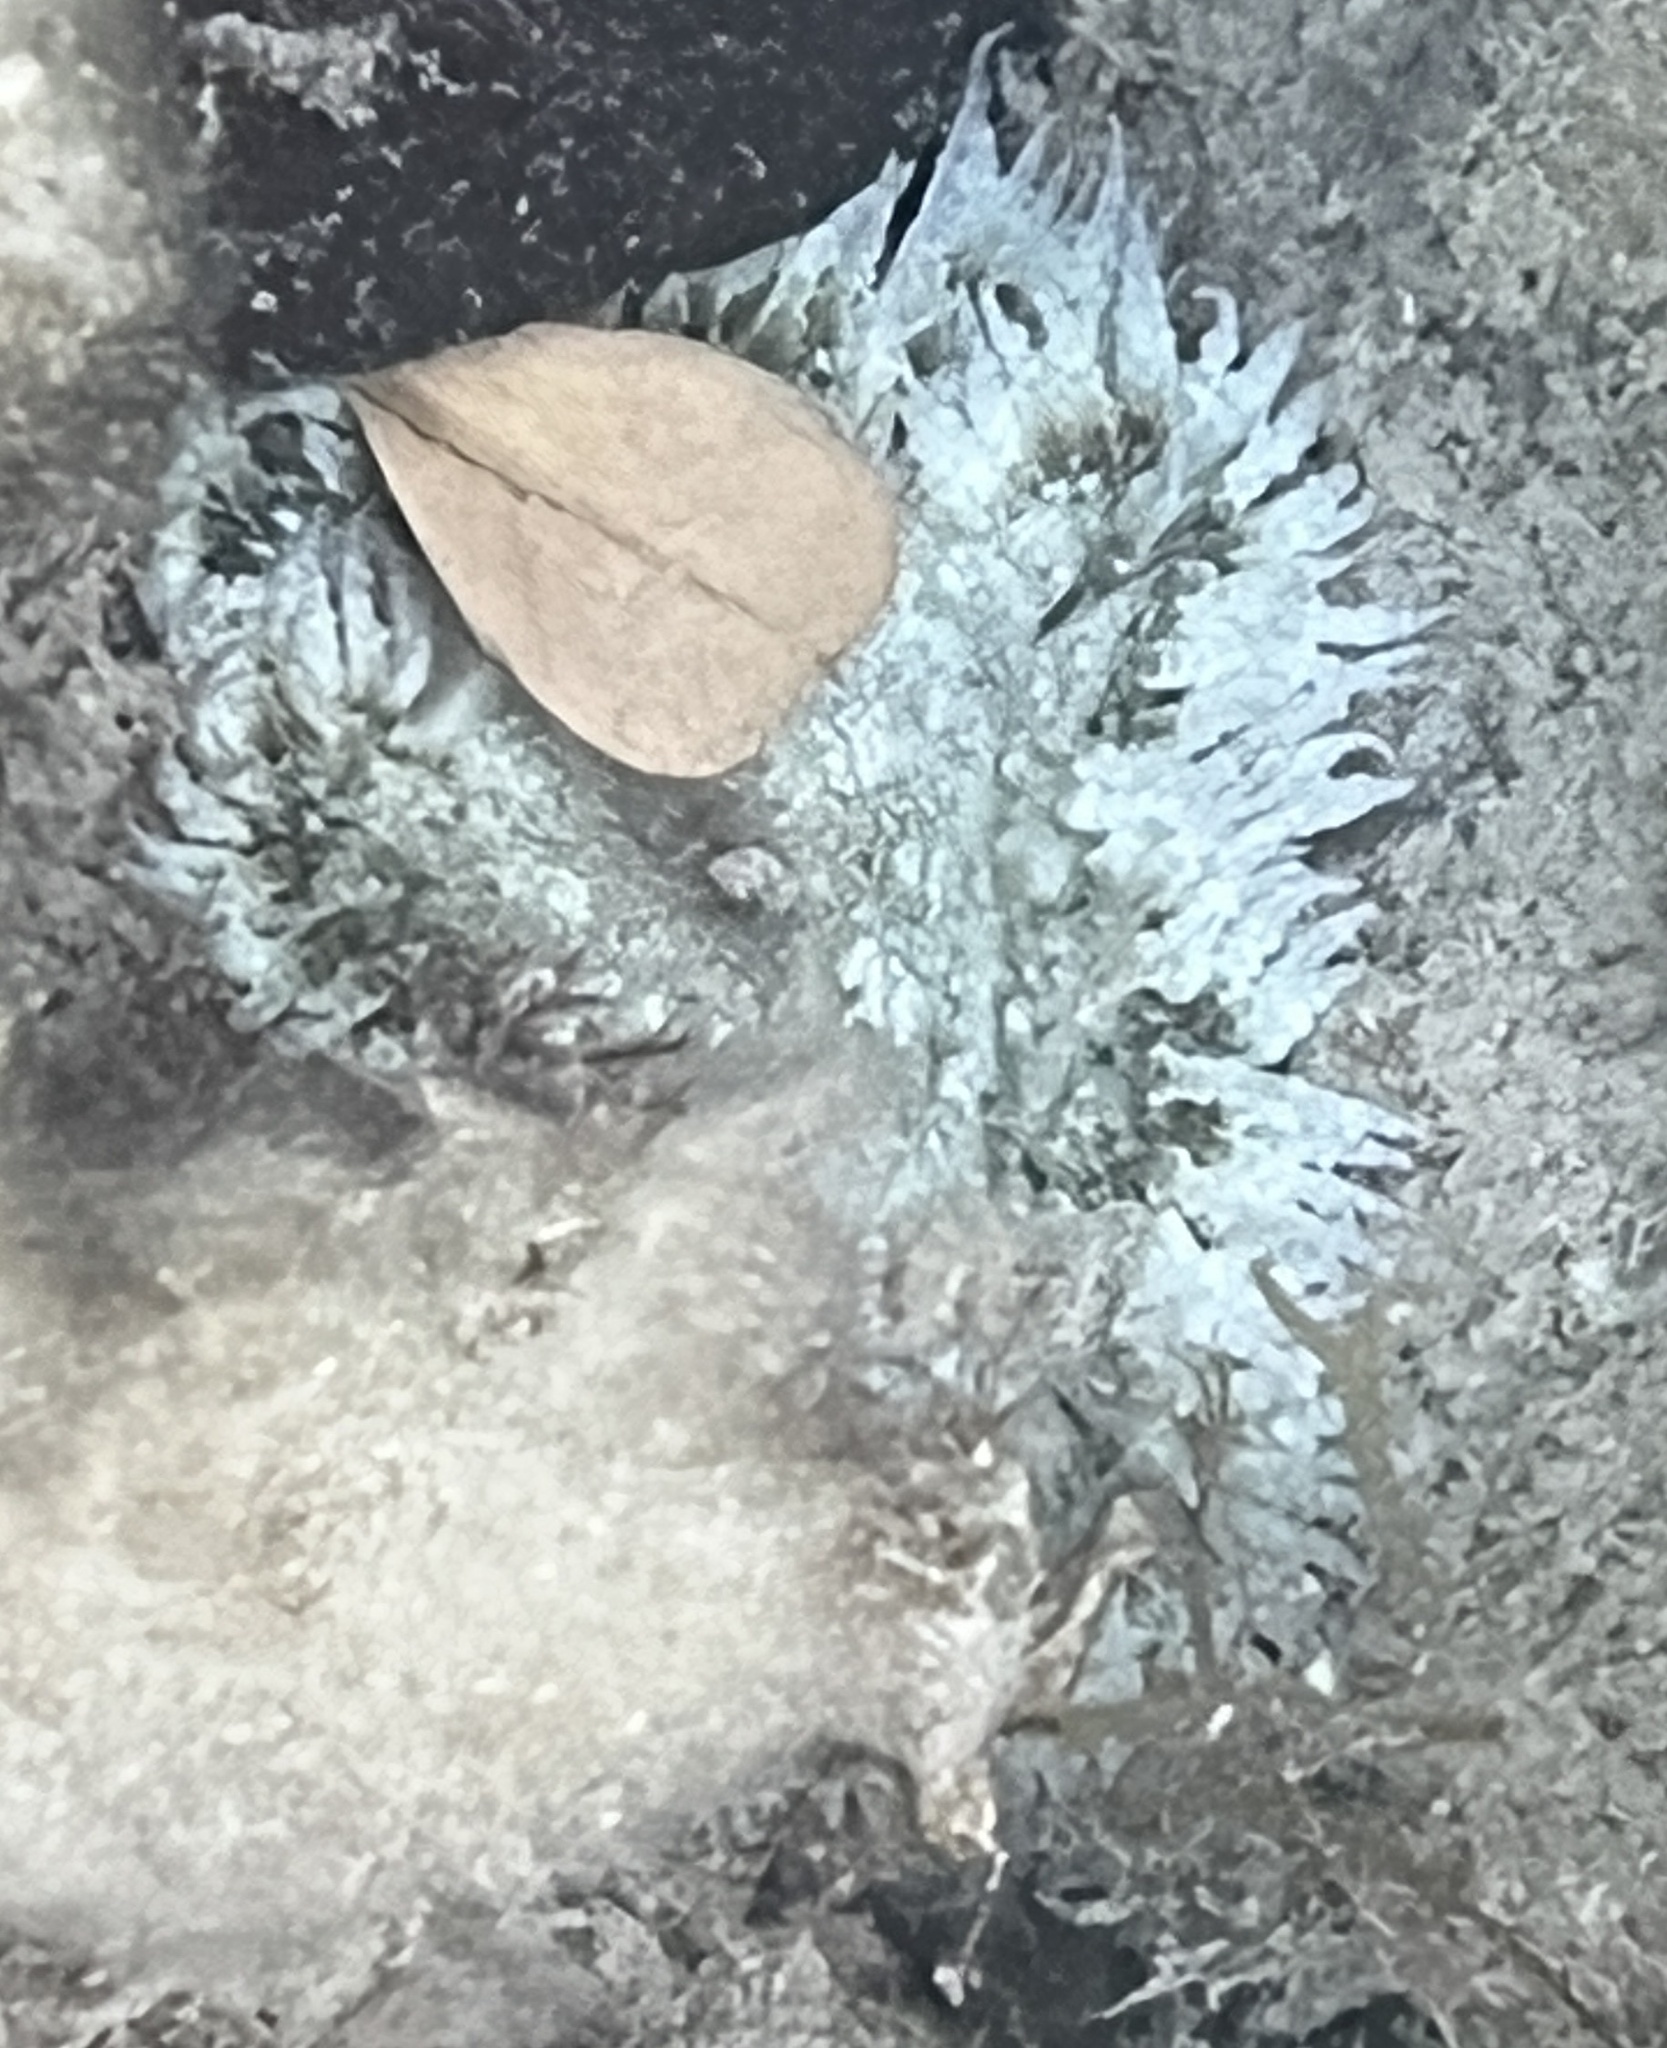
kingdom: Animalia
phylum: Cnidaria
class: Anthozoa
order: Actiniaria
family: Phymanthidae
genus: Phymanthus
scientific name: Phymanthus crucifer
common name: Red beaded anemone
